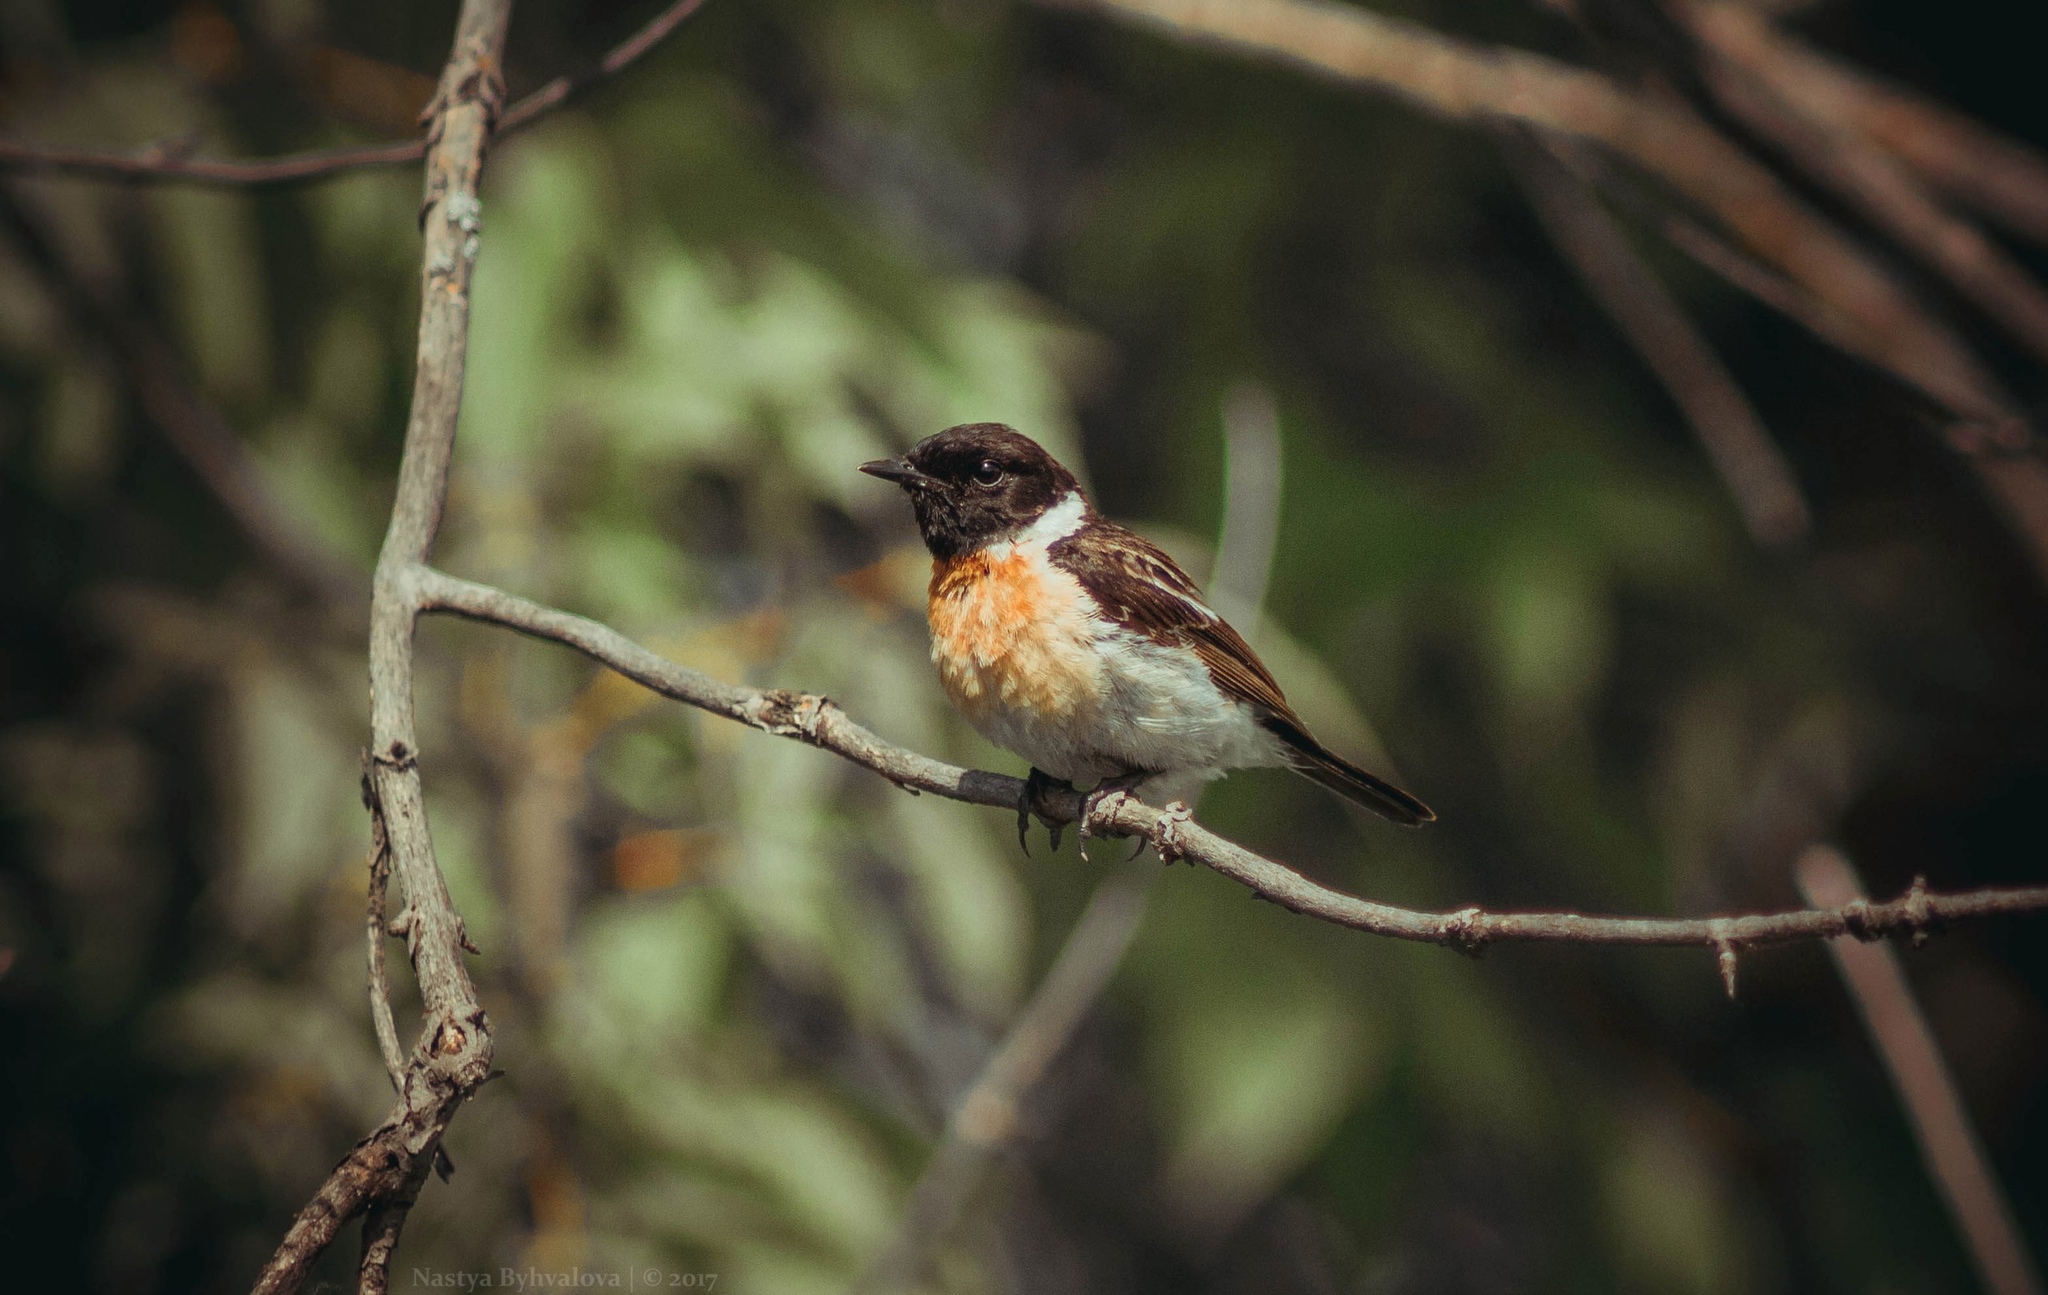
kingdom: Animalia
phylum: Chordata
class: Aves
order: Passeriformes
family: Muscicapidae
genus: Saxicola
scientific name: Saxicola maurus
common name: Siberian stonechat
